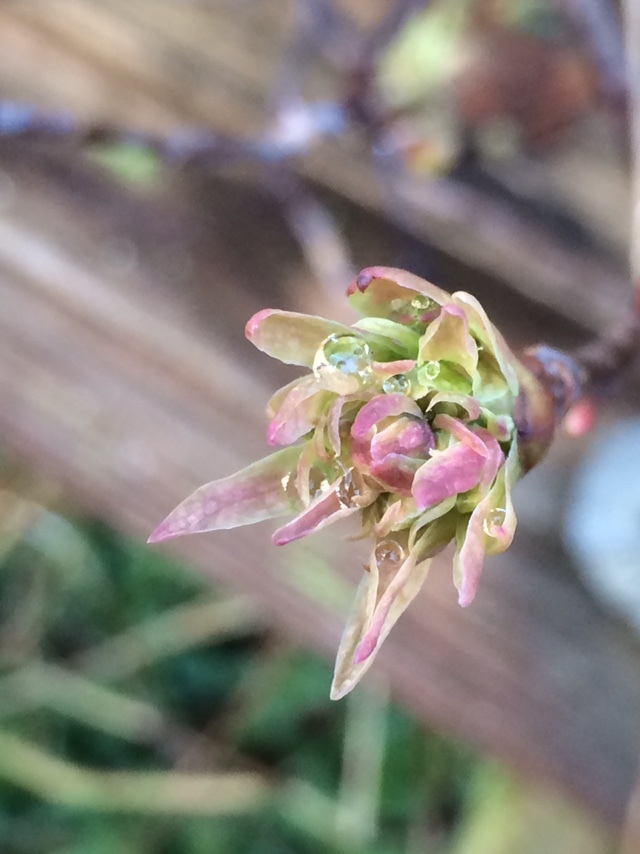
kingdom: Plantae
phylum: Tracheophyta
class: Magnoliopsida
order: Rosales
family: Rosaceae
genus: Oemleria
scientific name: Oemleria cerasiformis
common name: Osoberry
